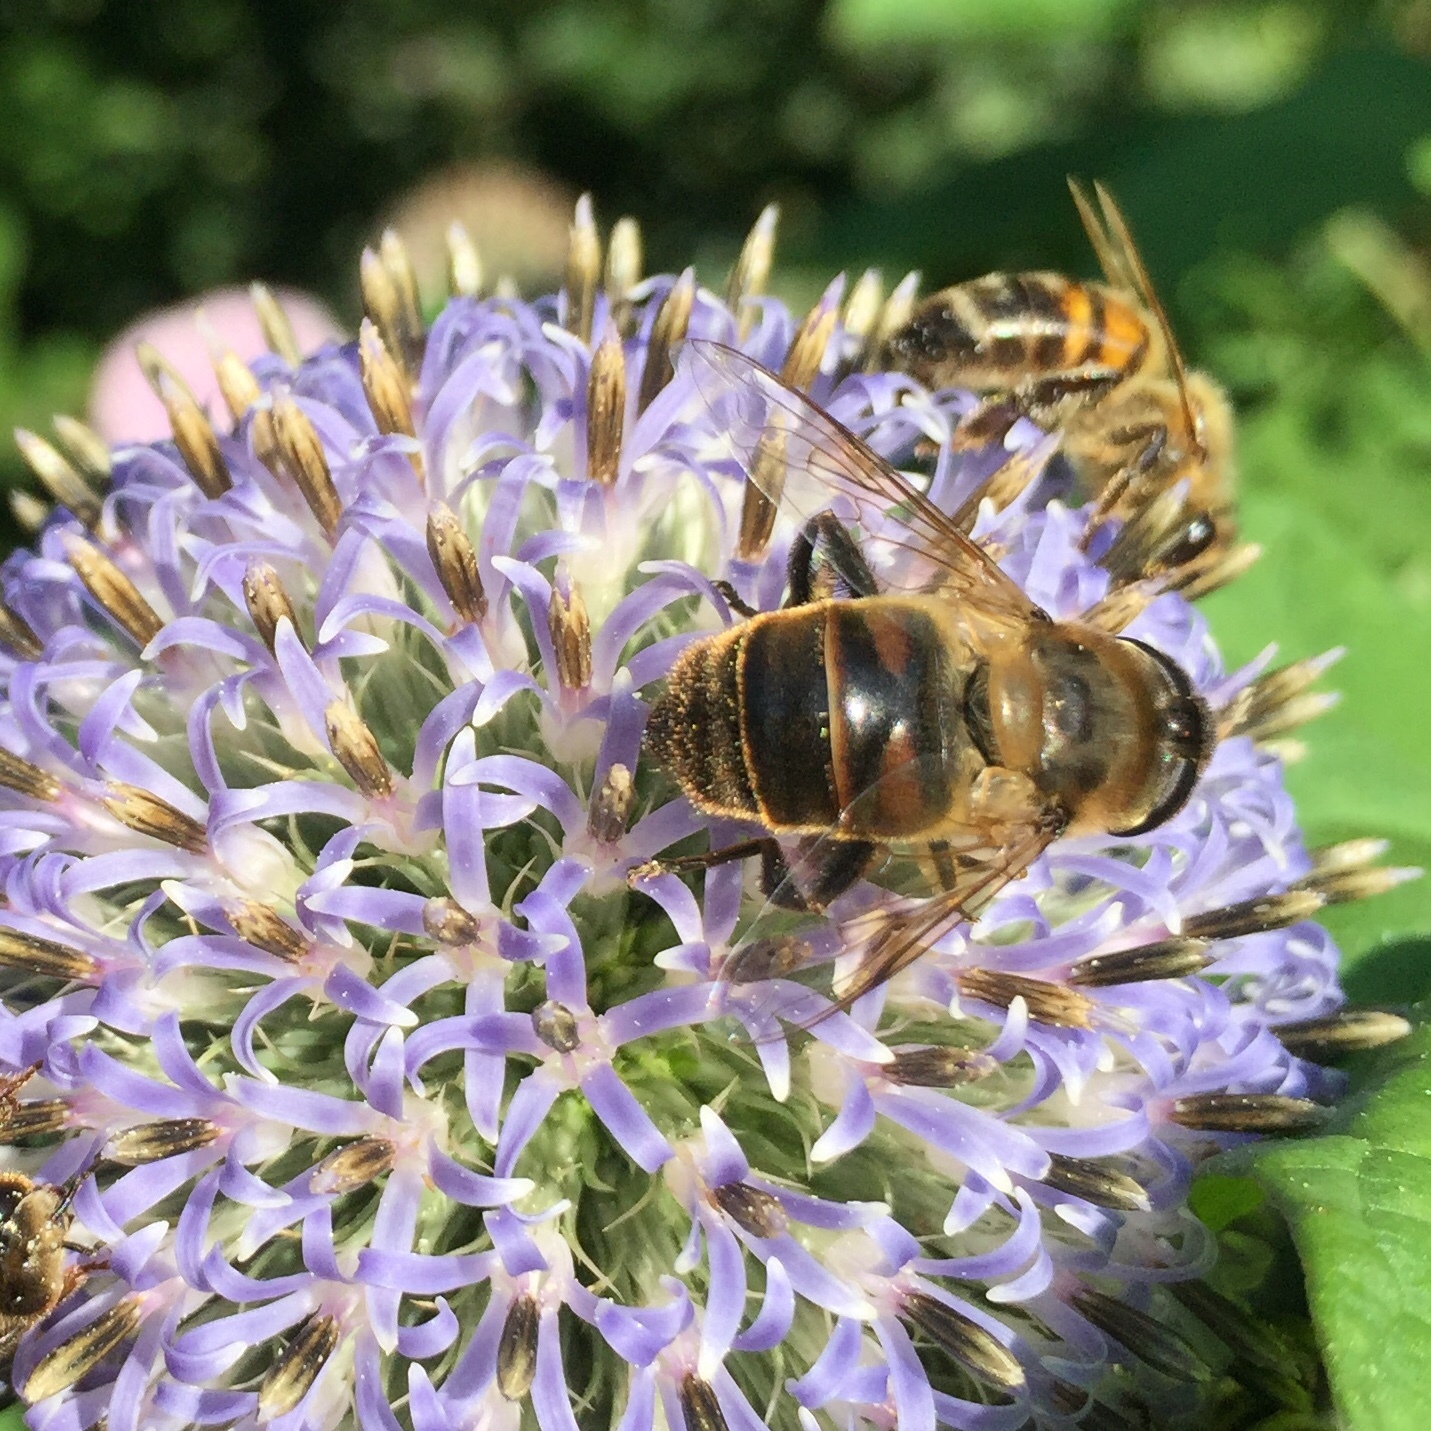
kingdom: Animalia
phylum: Arthropoda
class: Insecta
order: Diptera
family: Syrphidae
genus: Eristalis
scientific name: Eristalis tenax
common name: Drone fly
